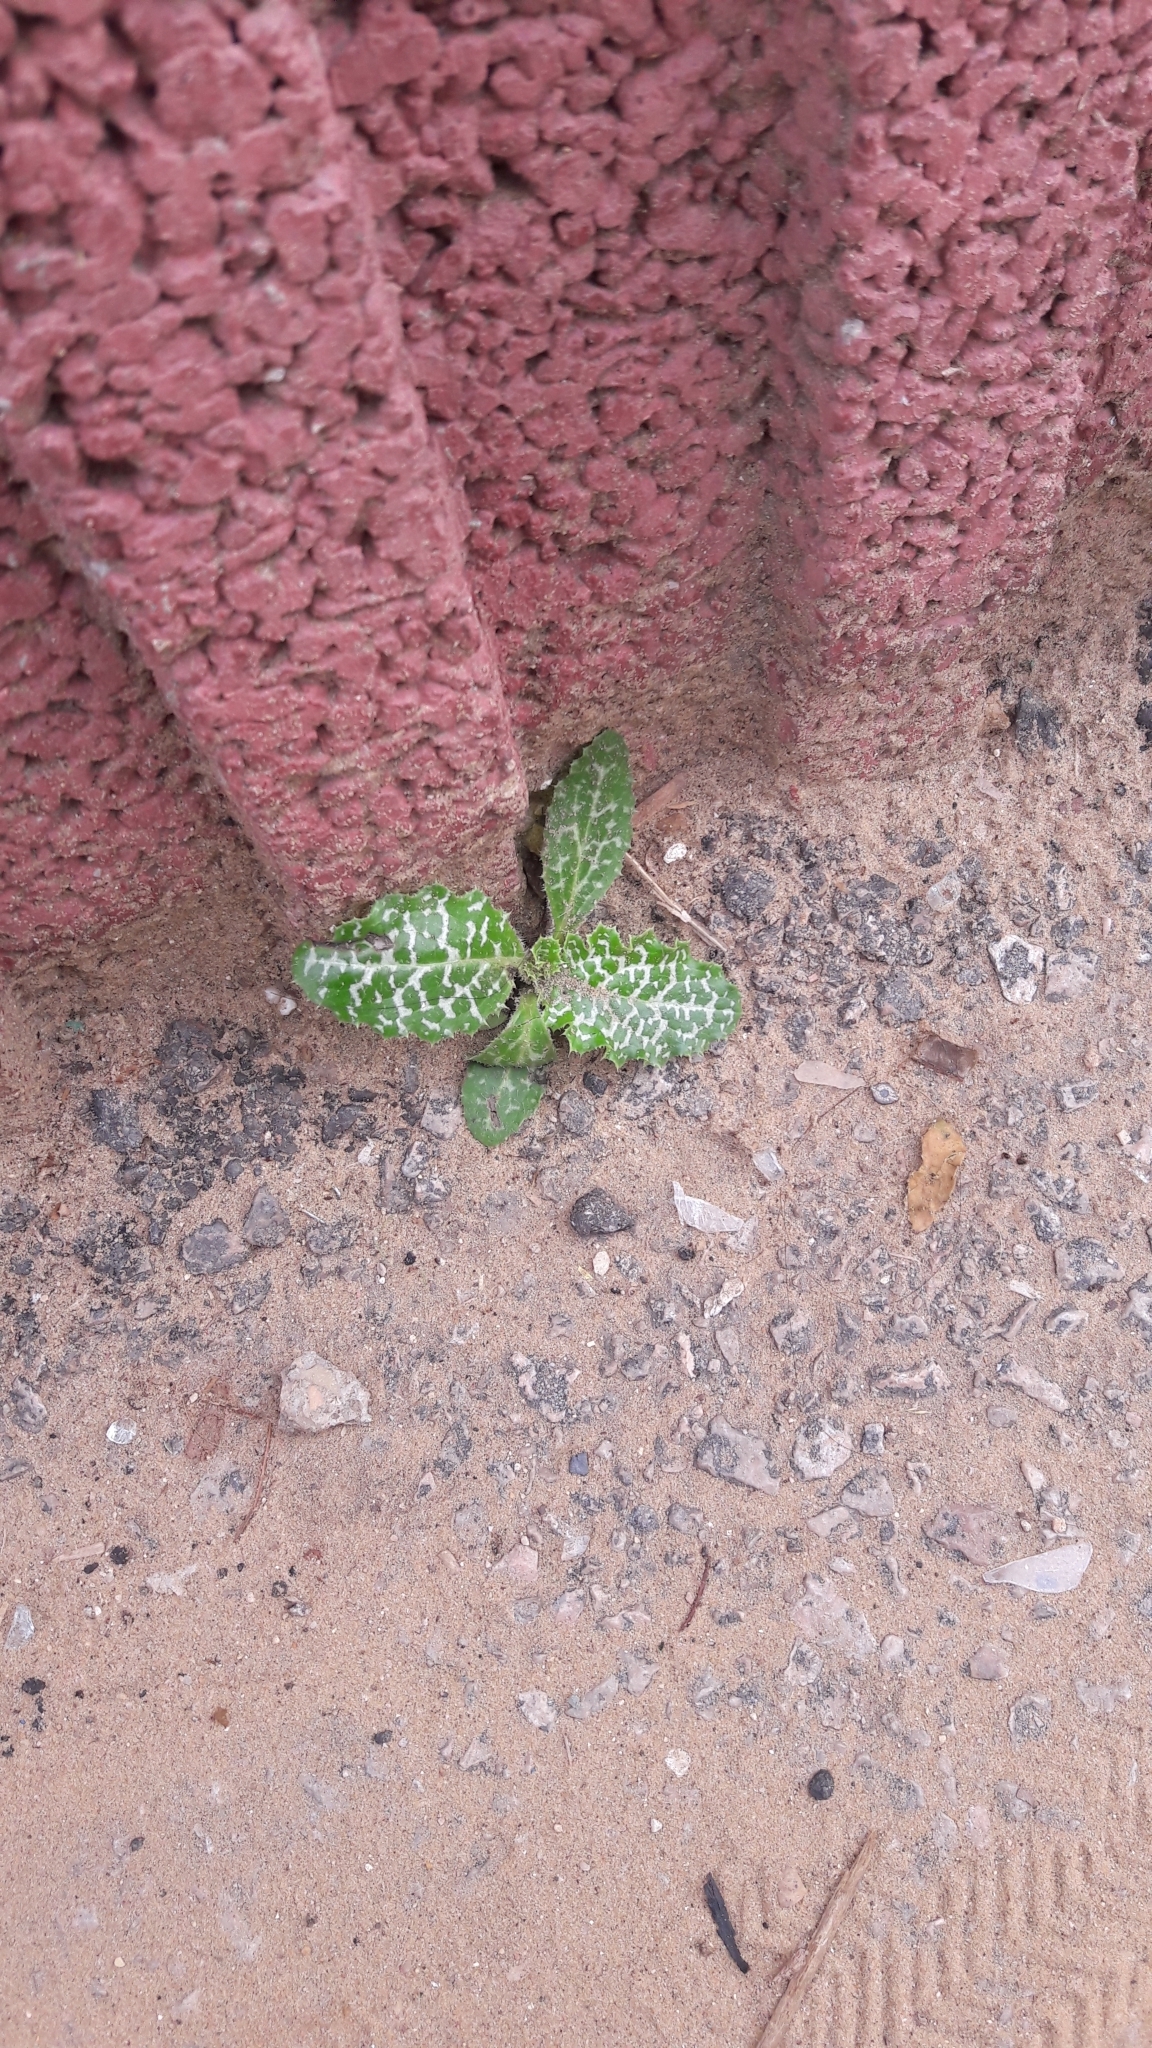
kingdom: Plantae
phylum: Tracheophyta
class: Magnoliopsida
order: Asterales
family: Asteraceae
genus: Silybum
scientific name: Silybum marianum
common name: Milk thistle
